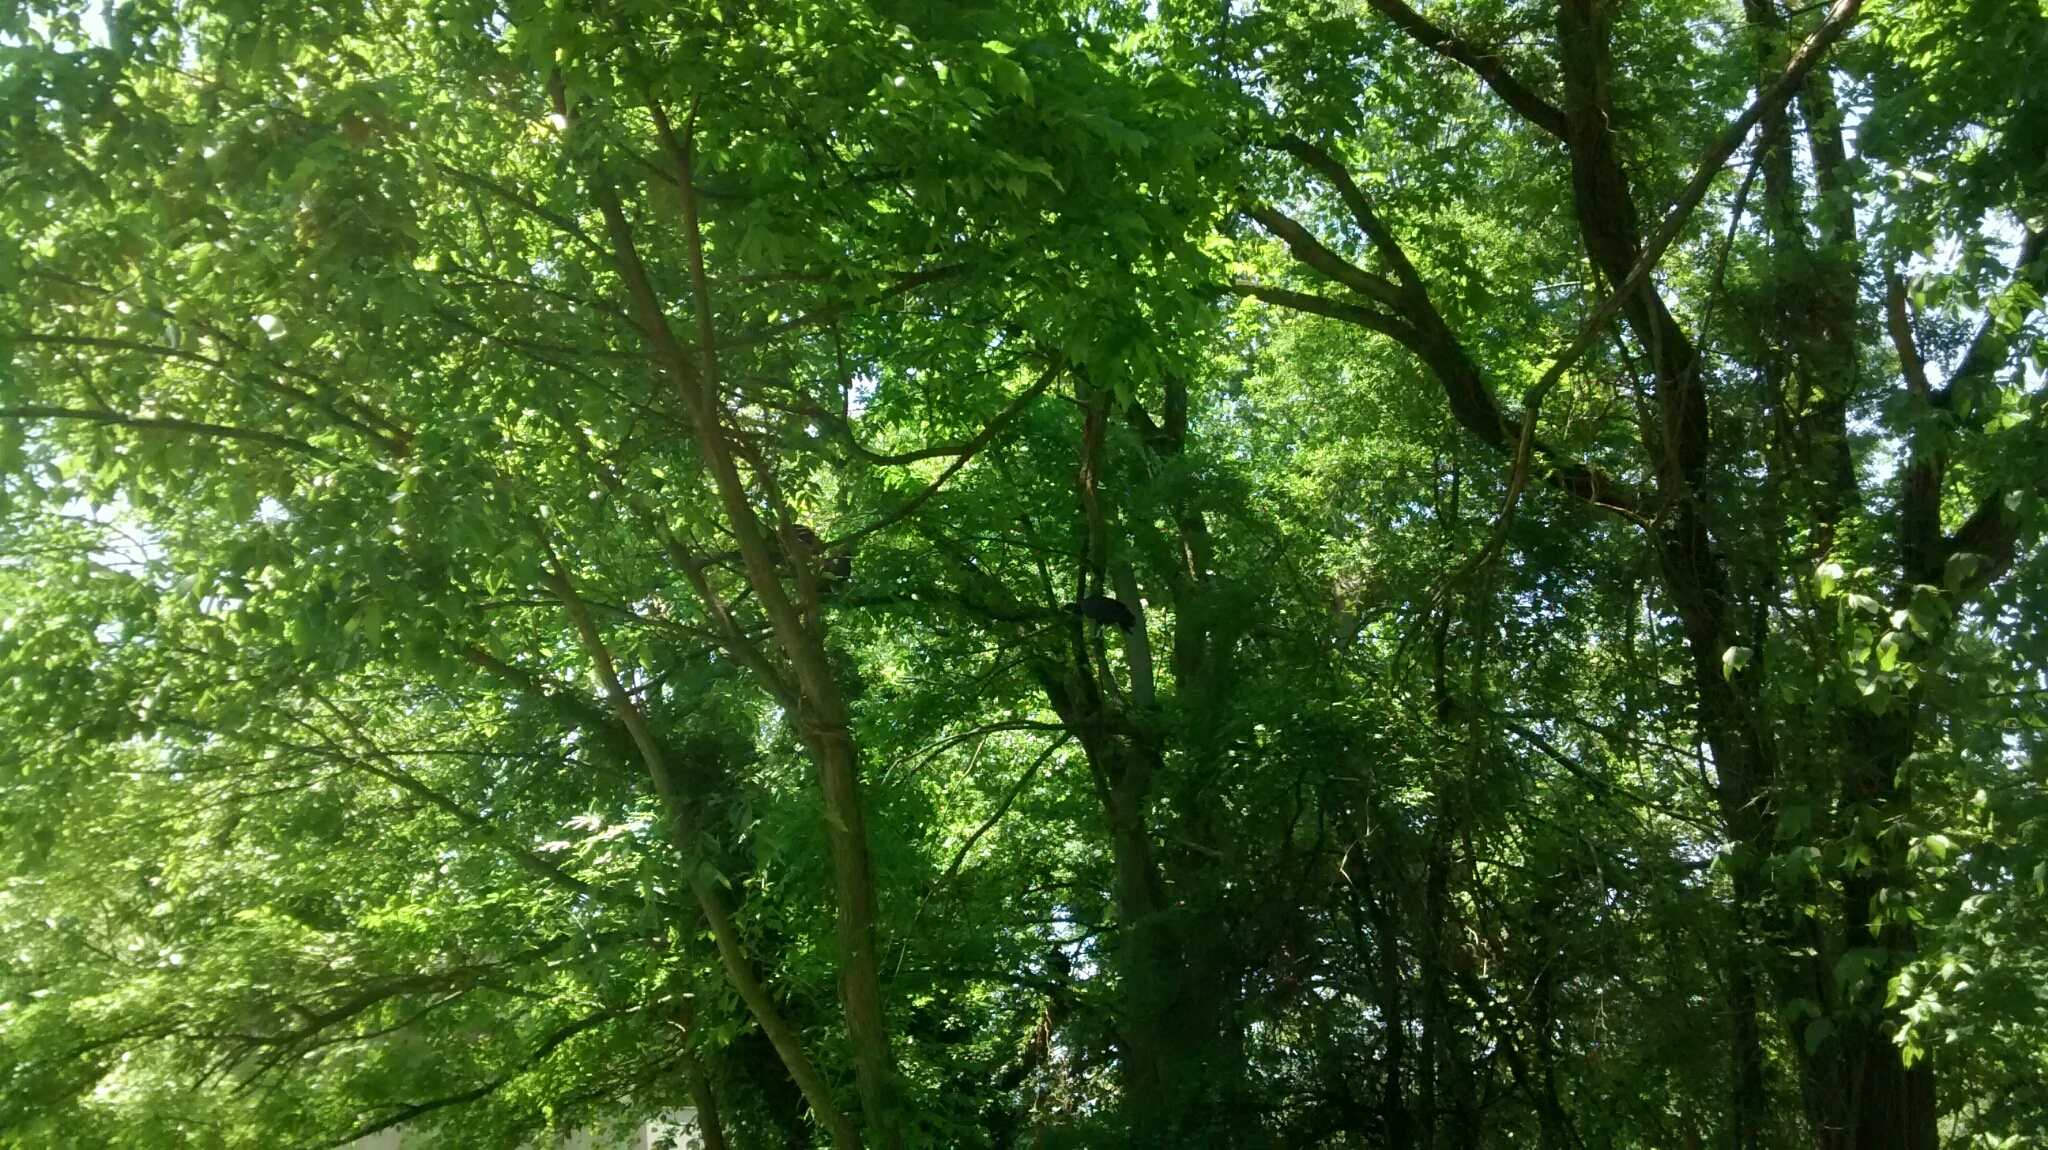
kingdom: Animalia
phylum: Chordata
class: Aves
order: Accipitriformes
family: Cathartidae
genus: Coragyps
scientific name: Coragyps atratus
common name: Black vulture
